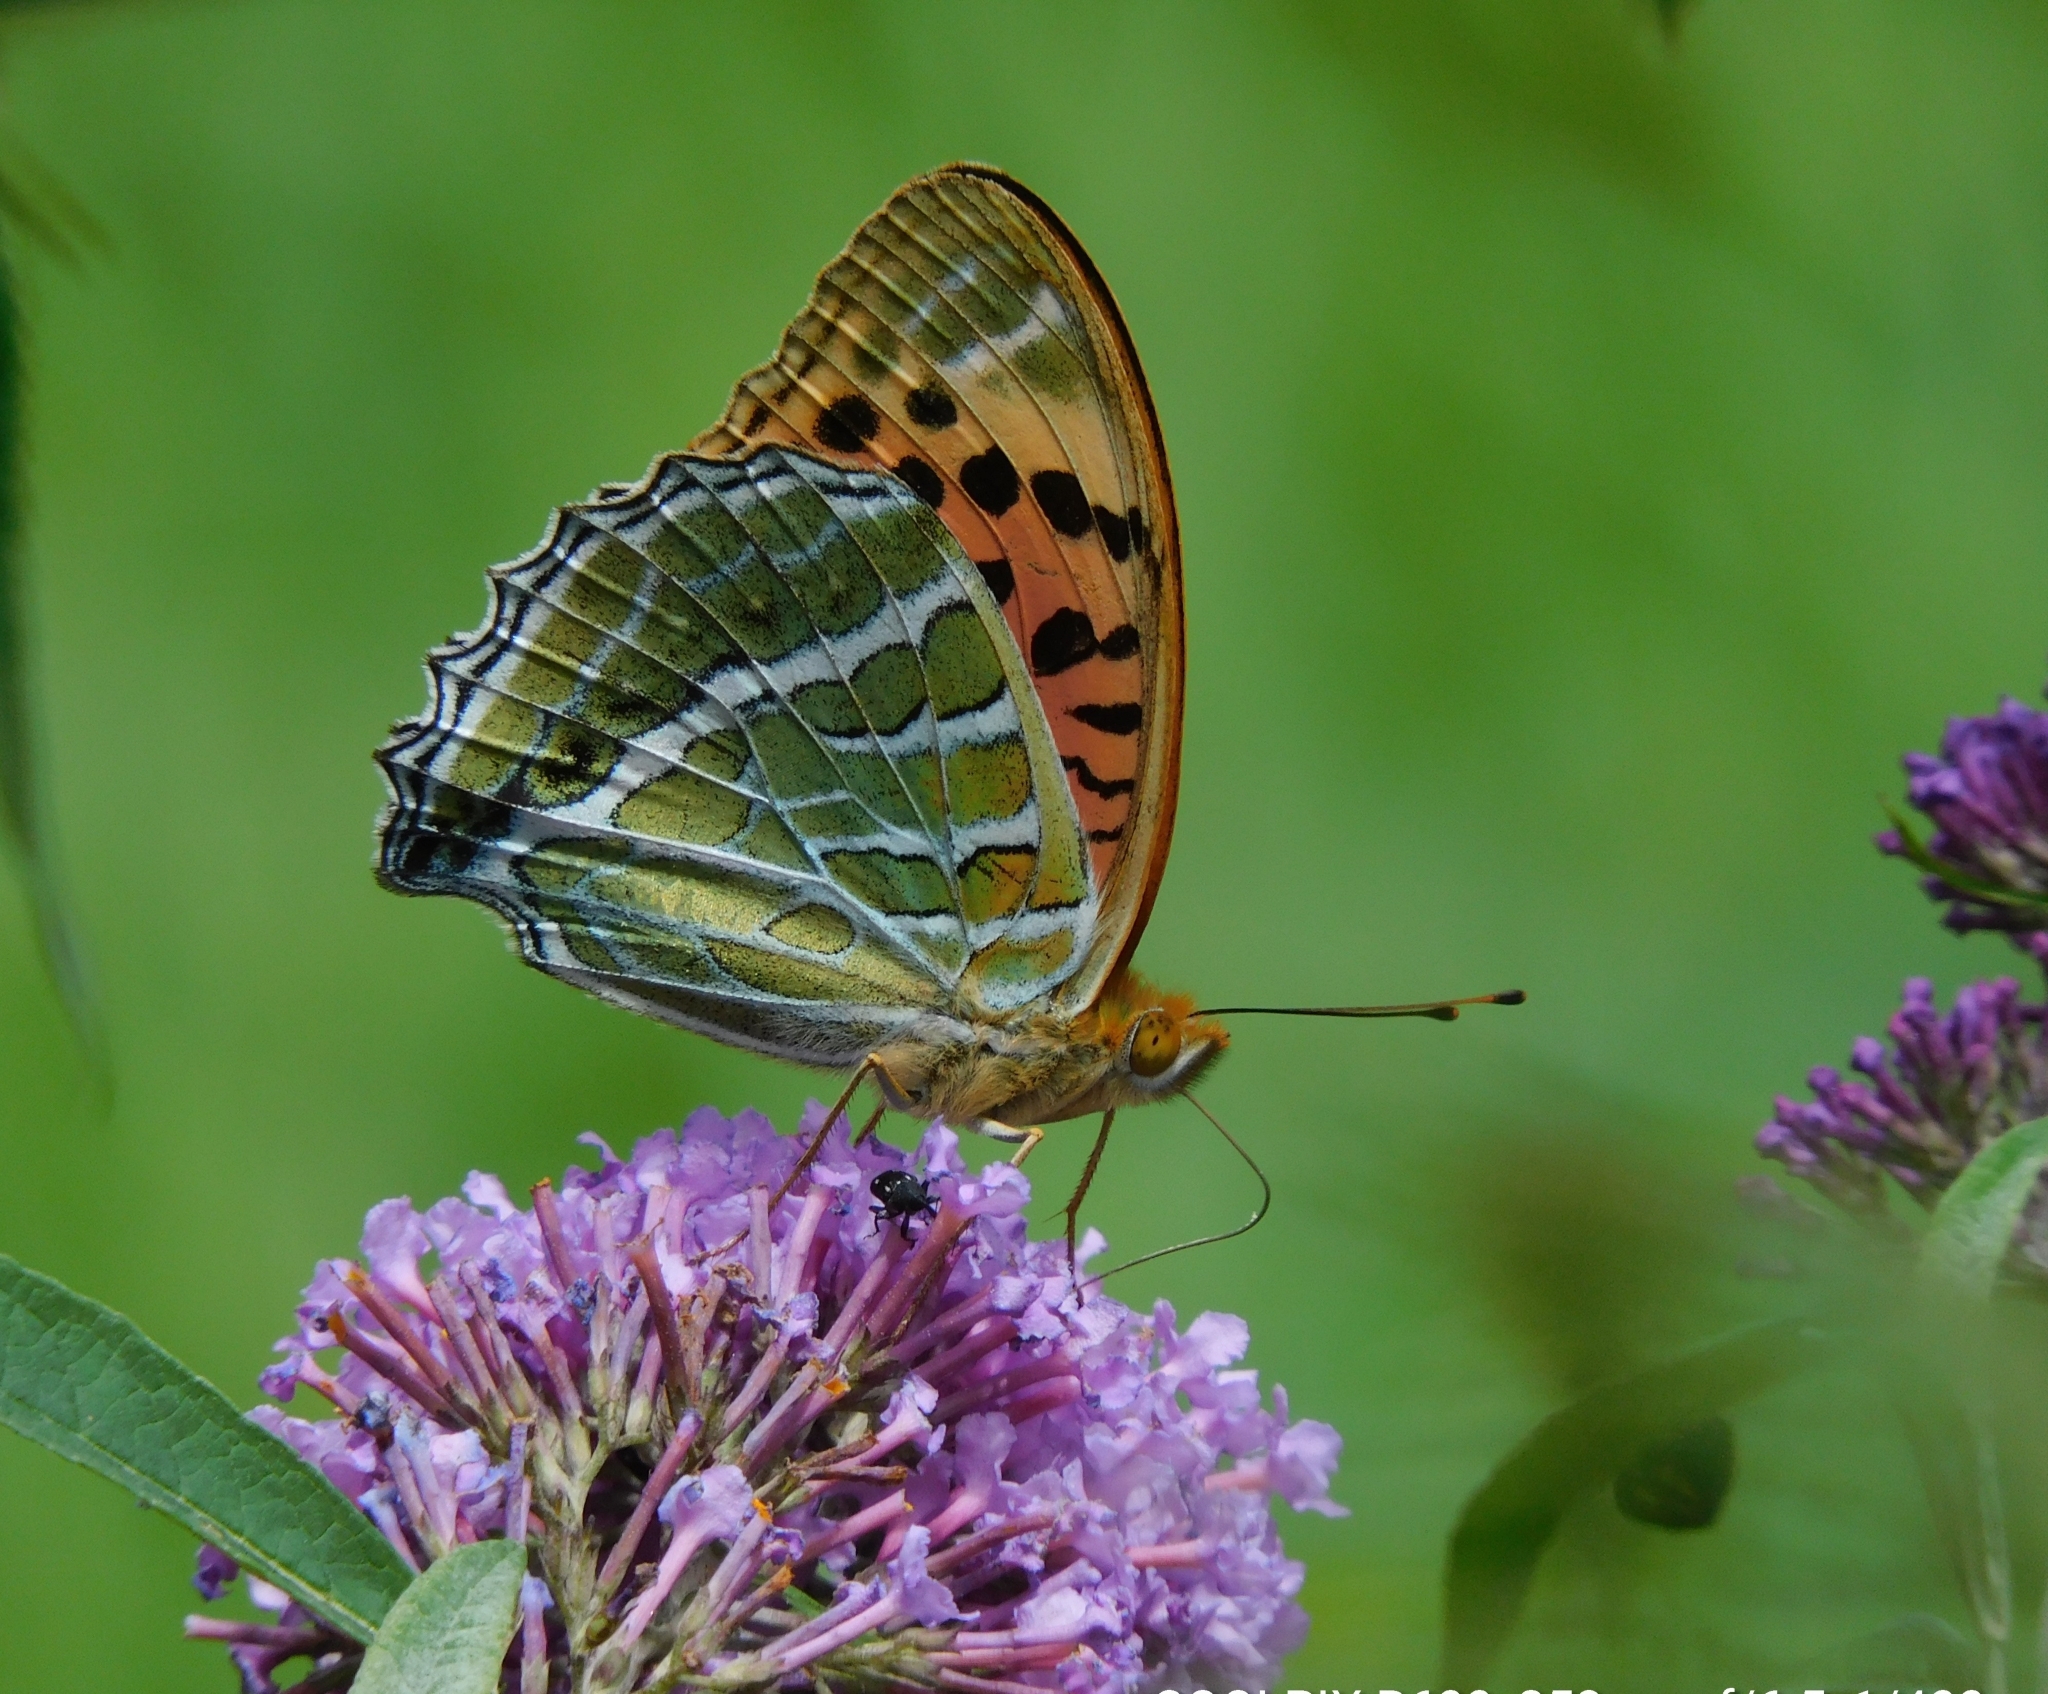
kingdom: Animalia
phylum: Arthropoda
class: Insecta
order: Lepidoptera
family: Nymphalidae
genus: Childrena
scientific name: Childrena childreni
